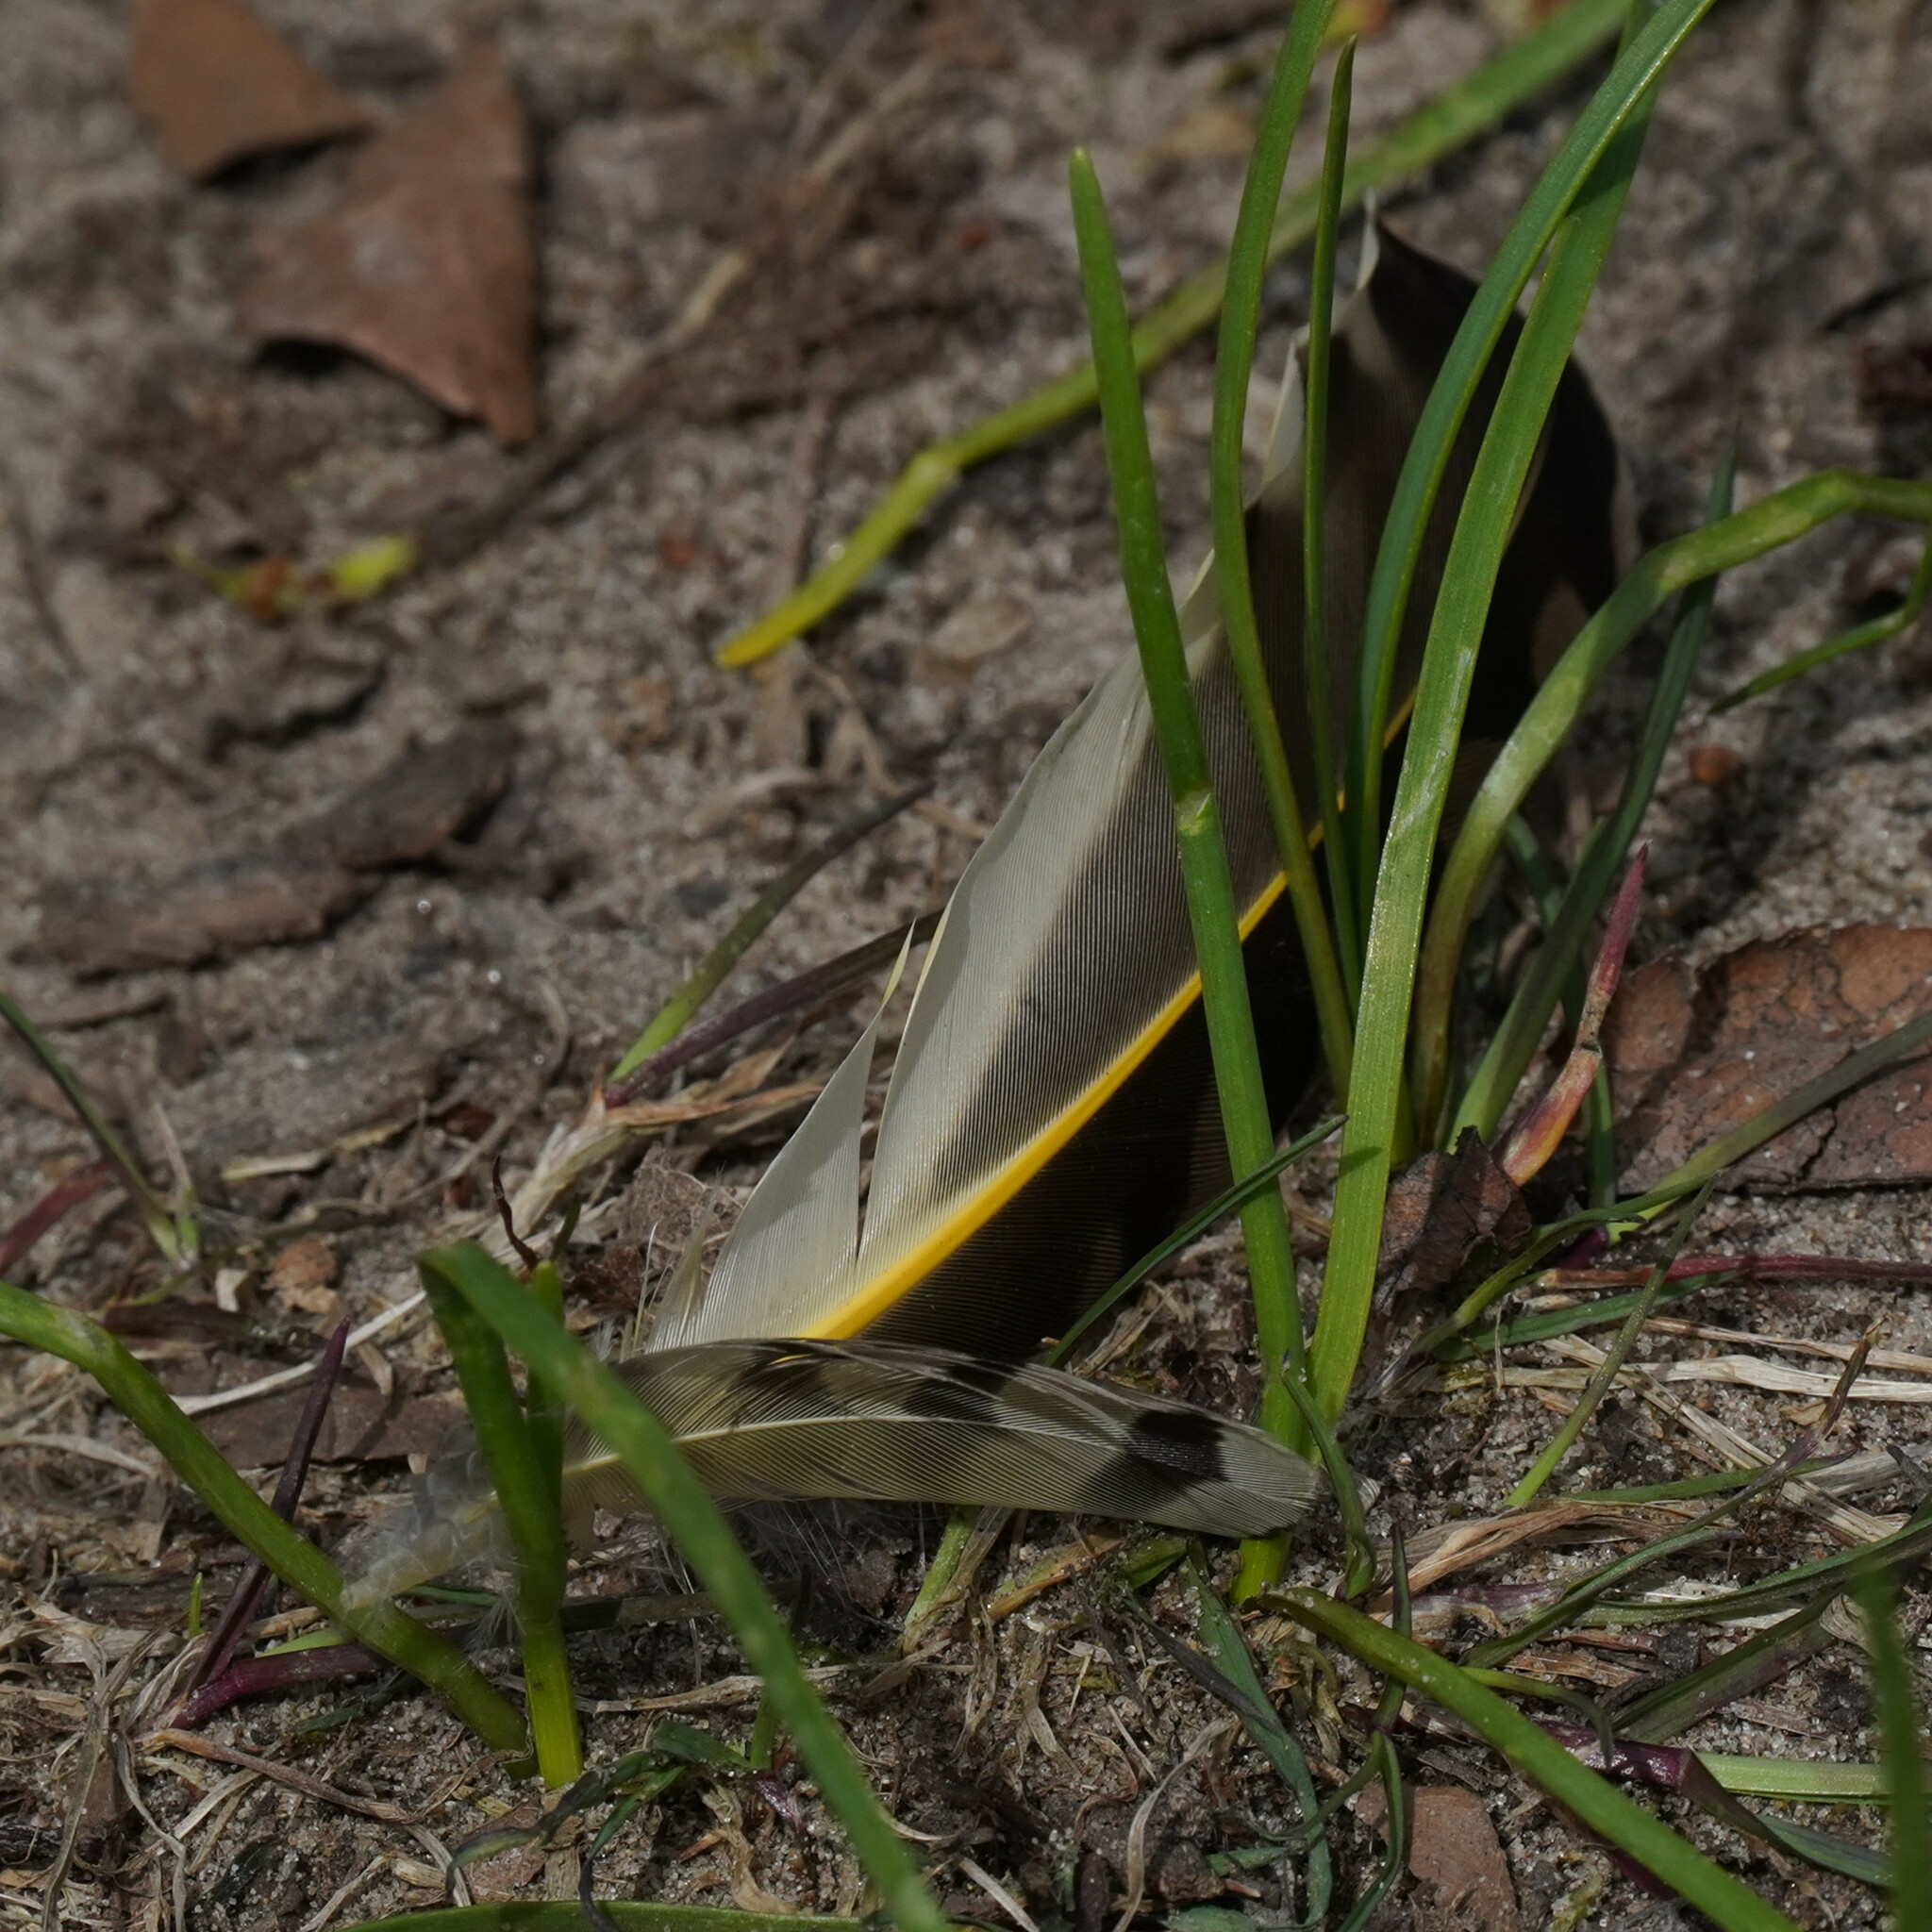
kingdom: Animalia
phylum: Chordata
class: Aves
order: Piciformes
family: Picidae
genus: Colaptes
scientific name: Colaptes auratus
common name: Northern flicker
